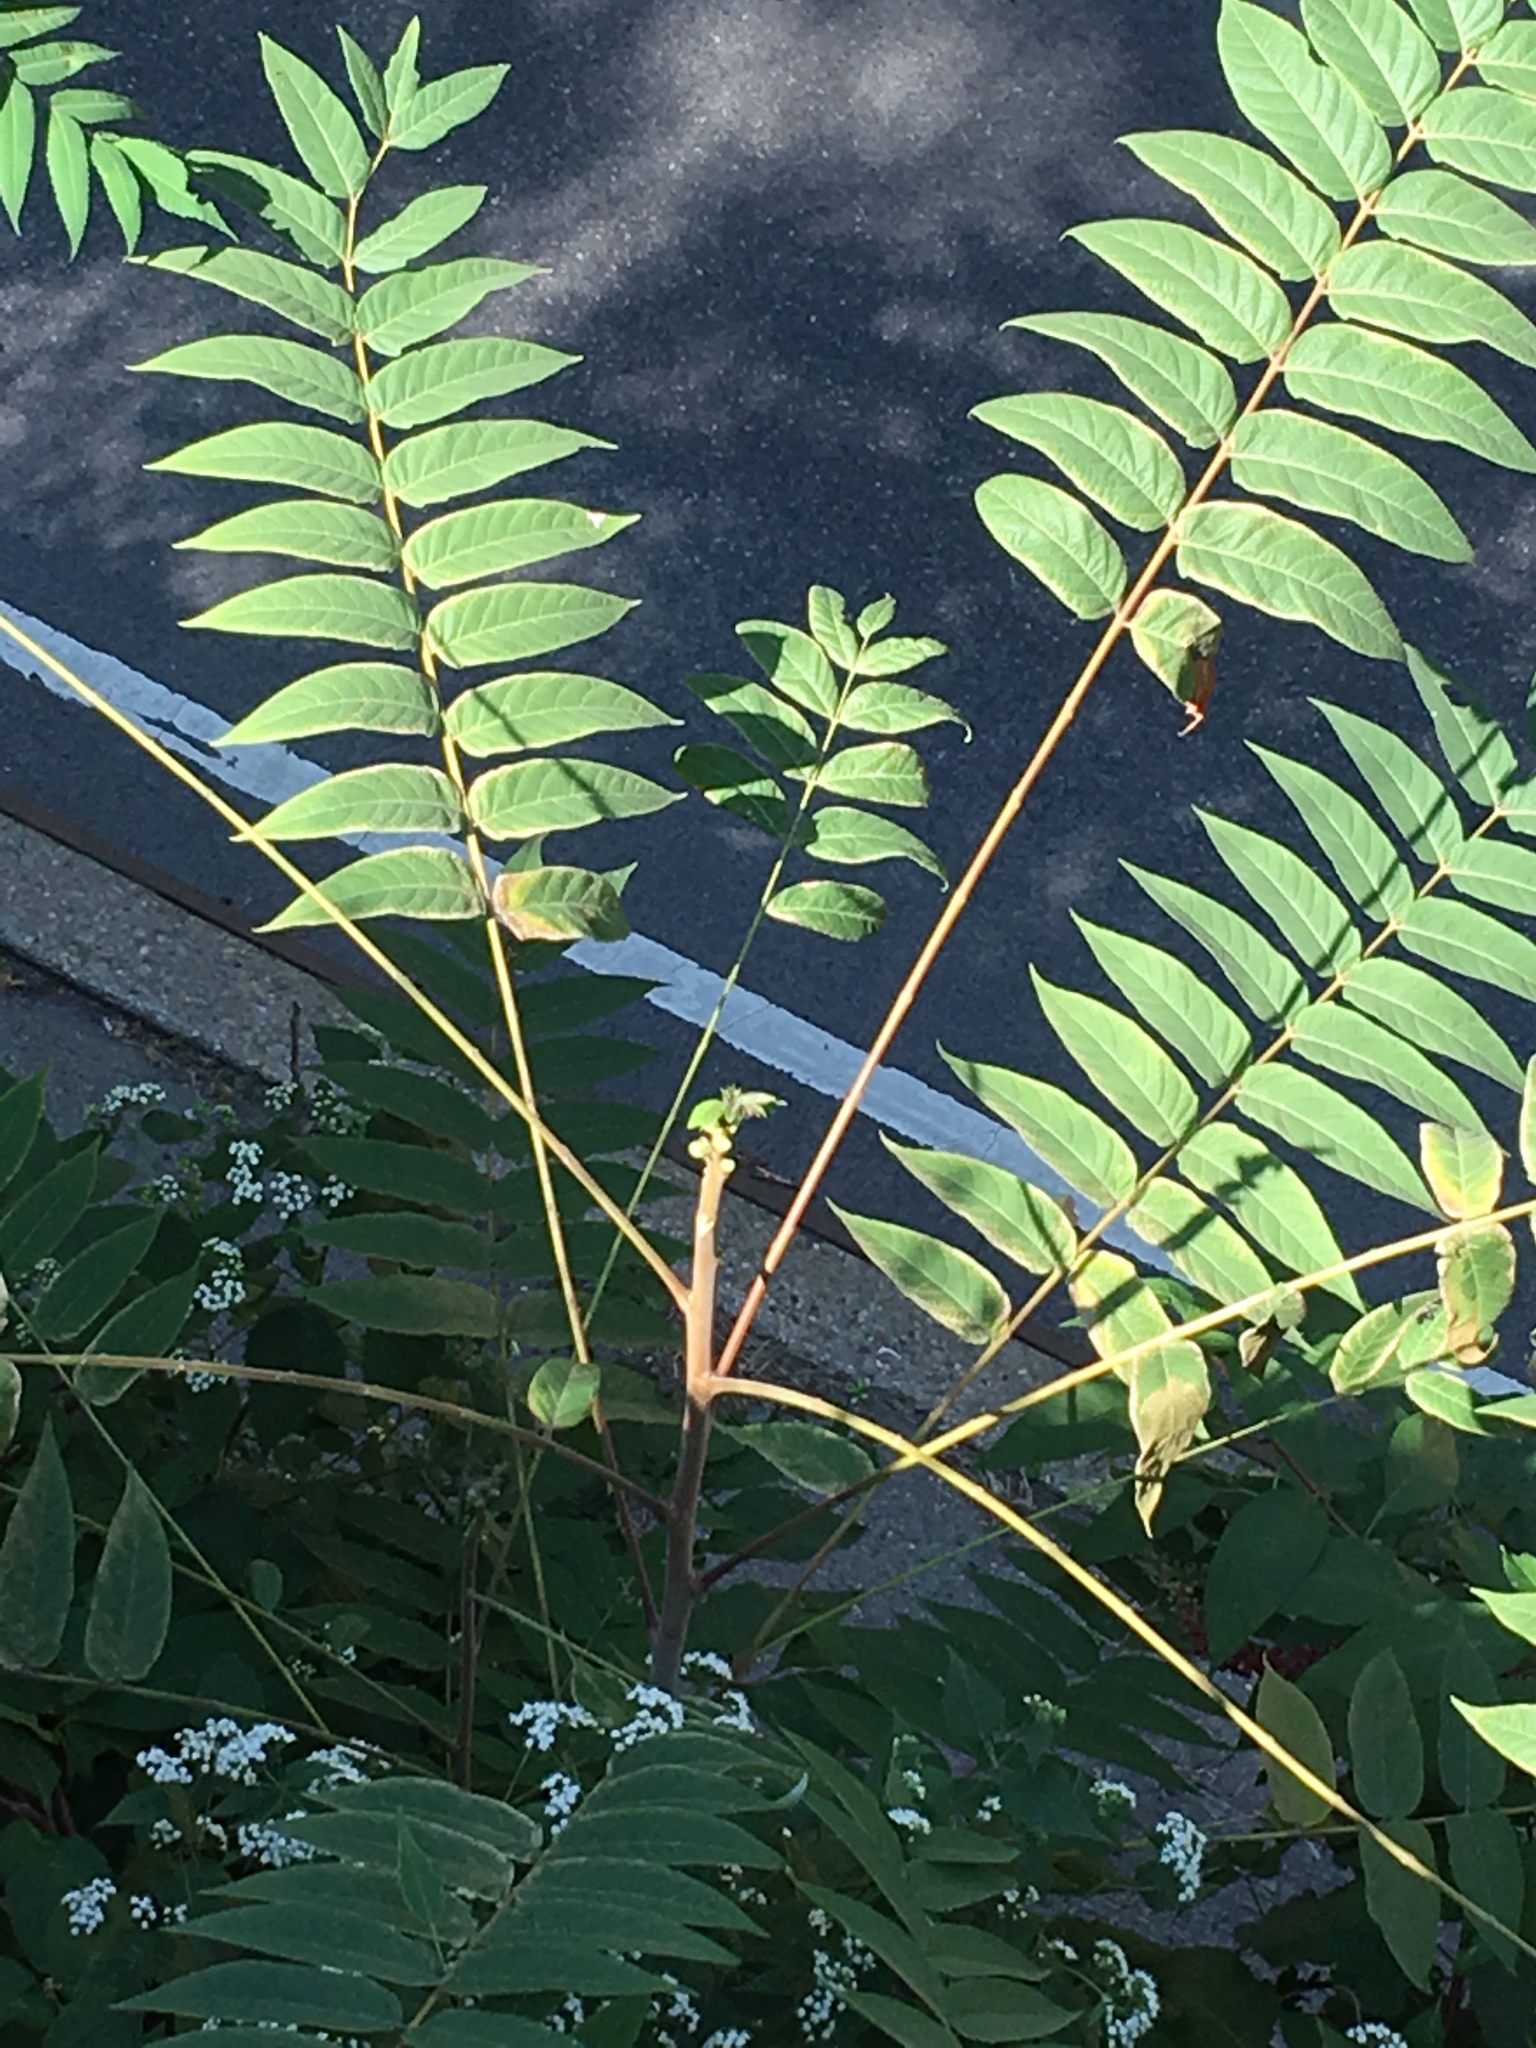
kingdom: Plantae
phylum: Tracheophyta
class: Magnoliopsida
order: Sapindales
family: Anacardiaceae
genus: Rhus
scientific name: Rhus typhina
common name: Staghorn sumac
